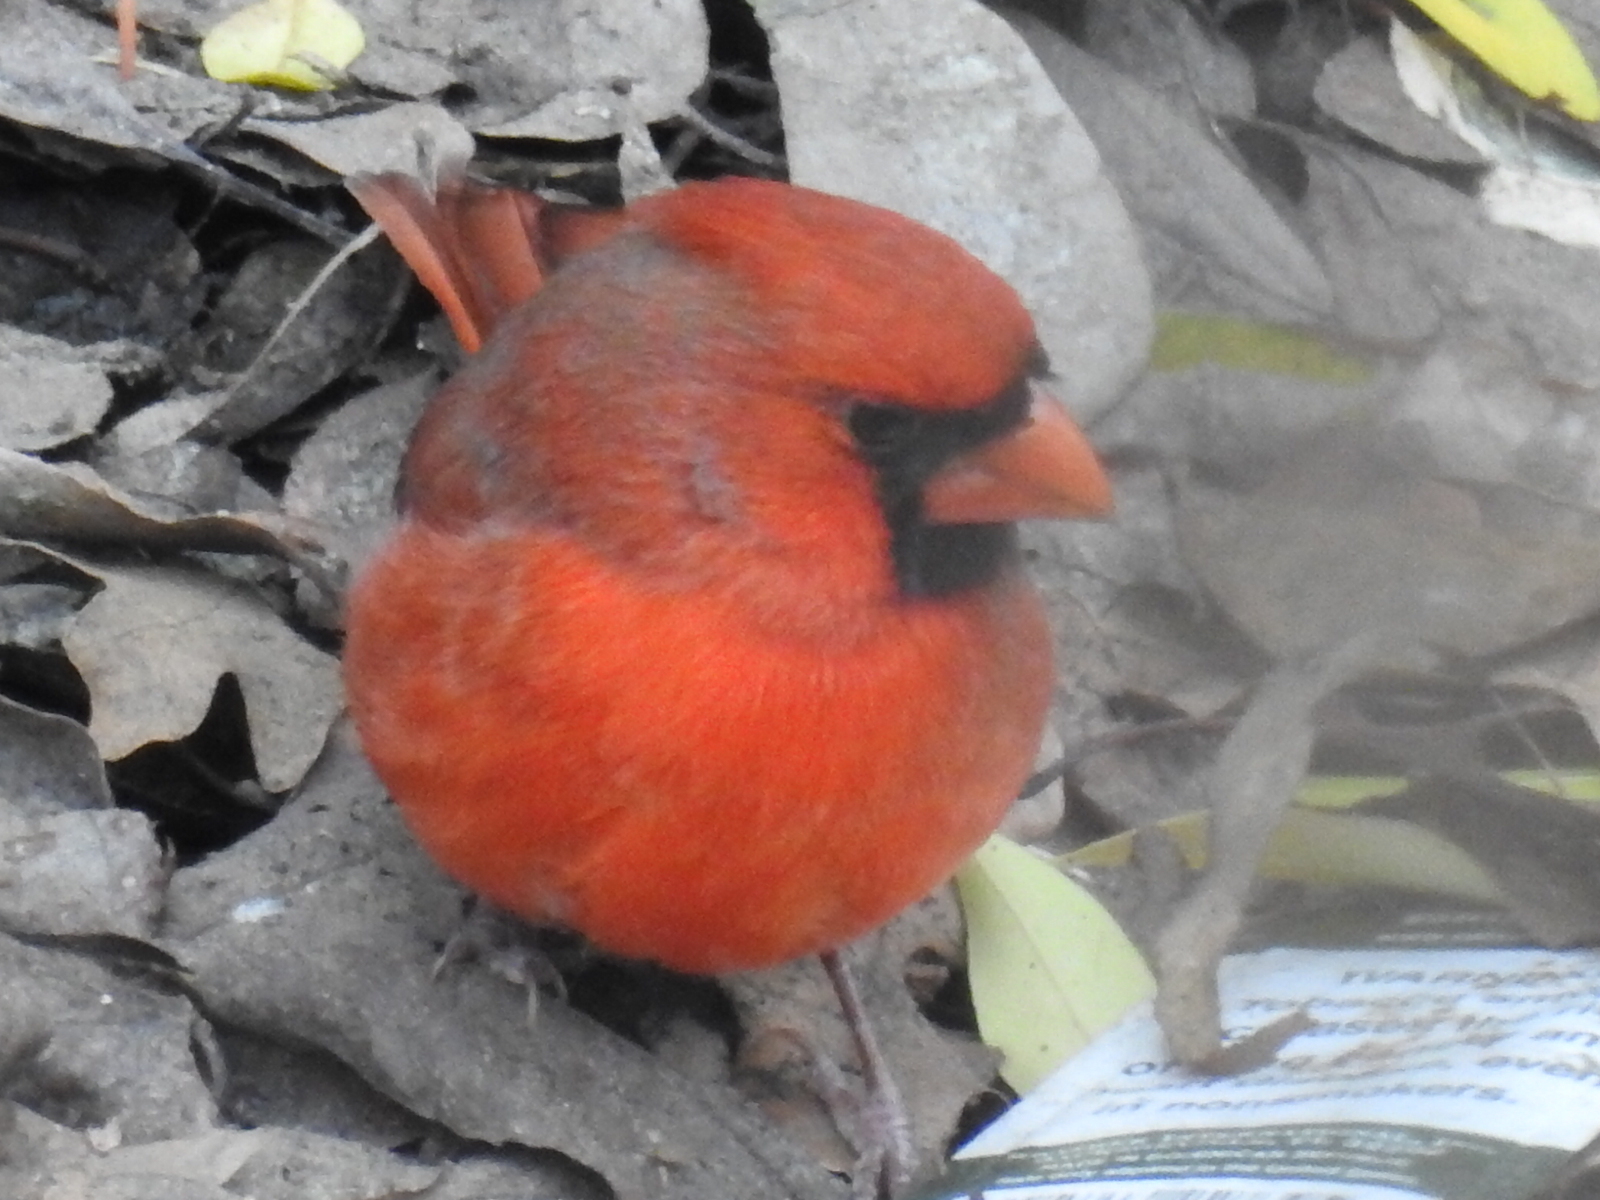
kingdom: Animalia
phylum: Chordata
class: Aves
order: Passeriformes
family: Cardinalidae
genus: Cardinalis
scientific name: Cardinalis cardinalis
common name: Northern cardinal
